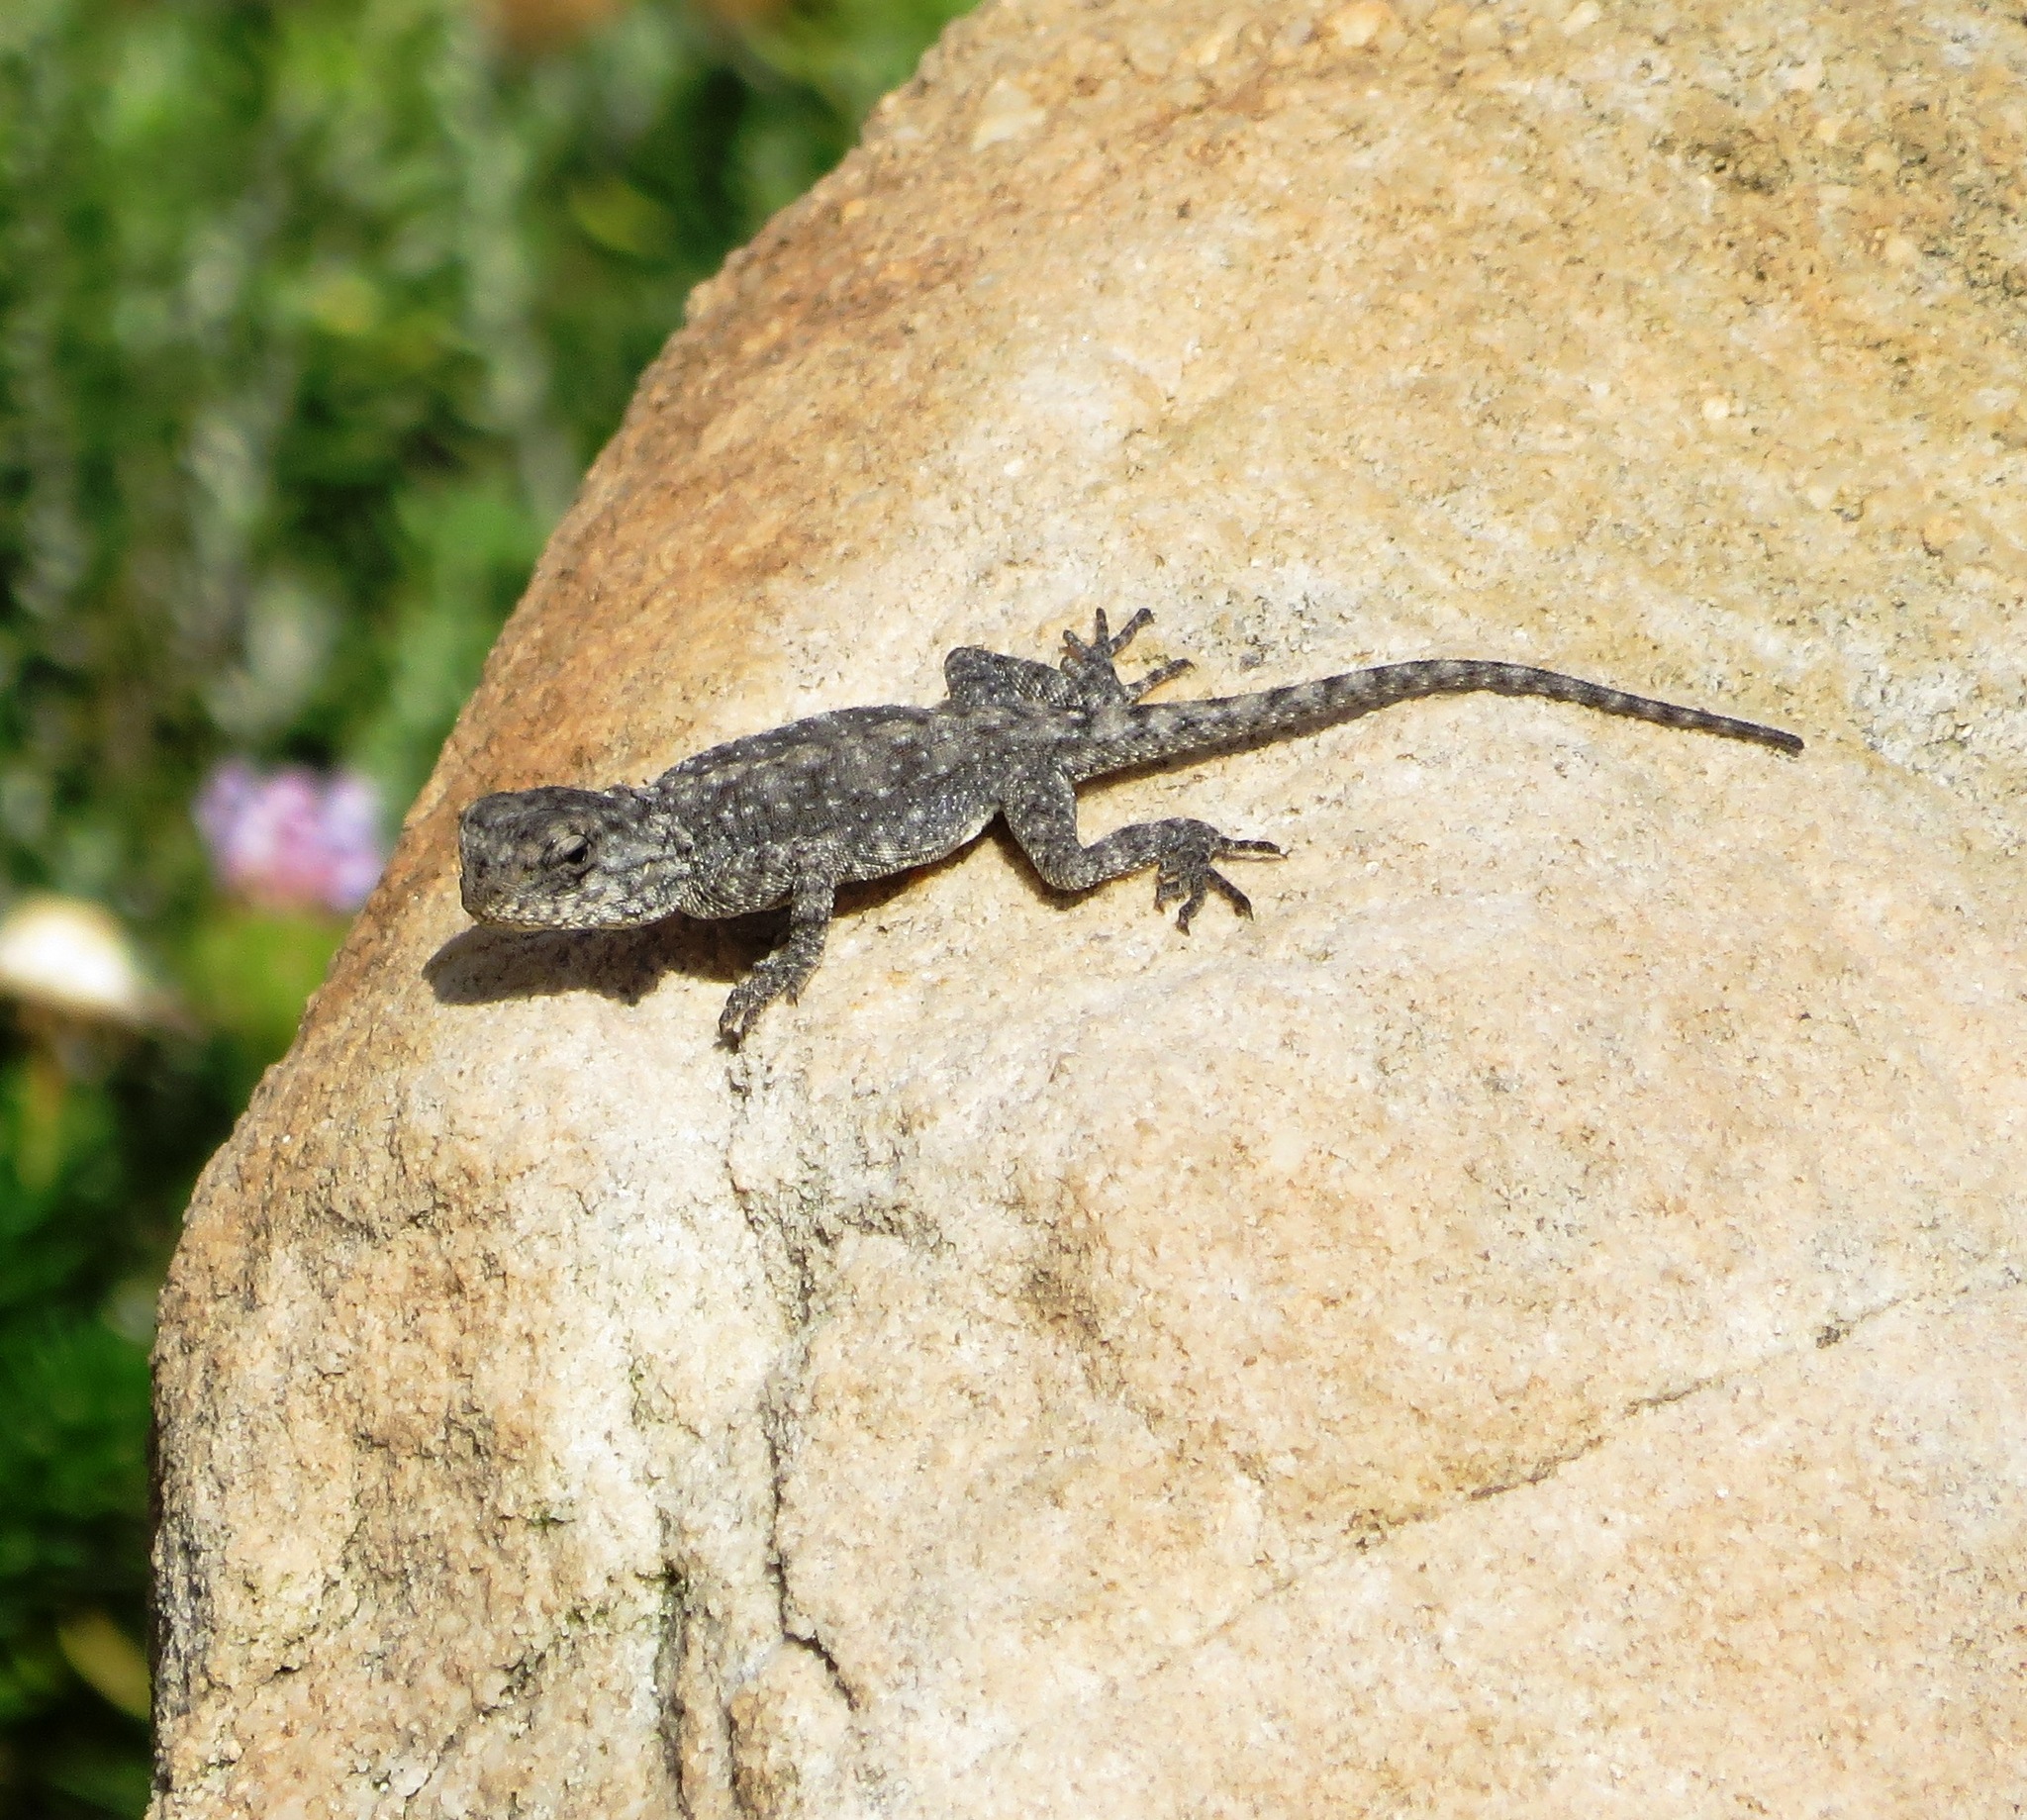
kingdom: Animalia
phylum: Chordata
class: Squamata
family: Agamidae
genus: Agama
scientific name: Agama atra
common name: Southern african rock agama
